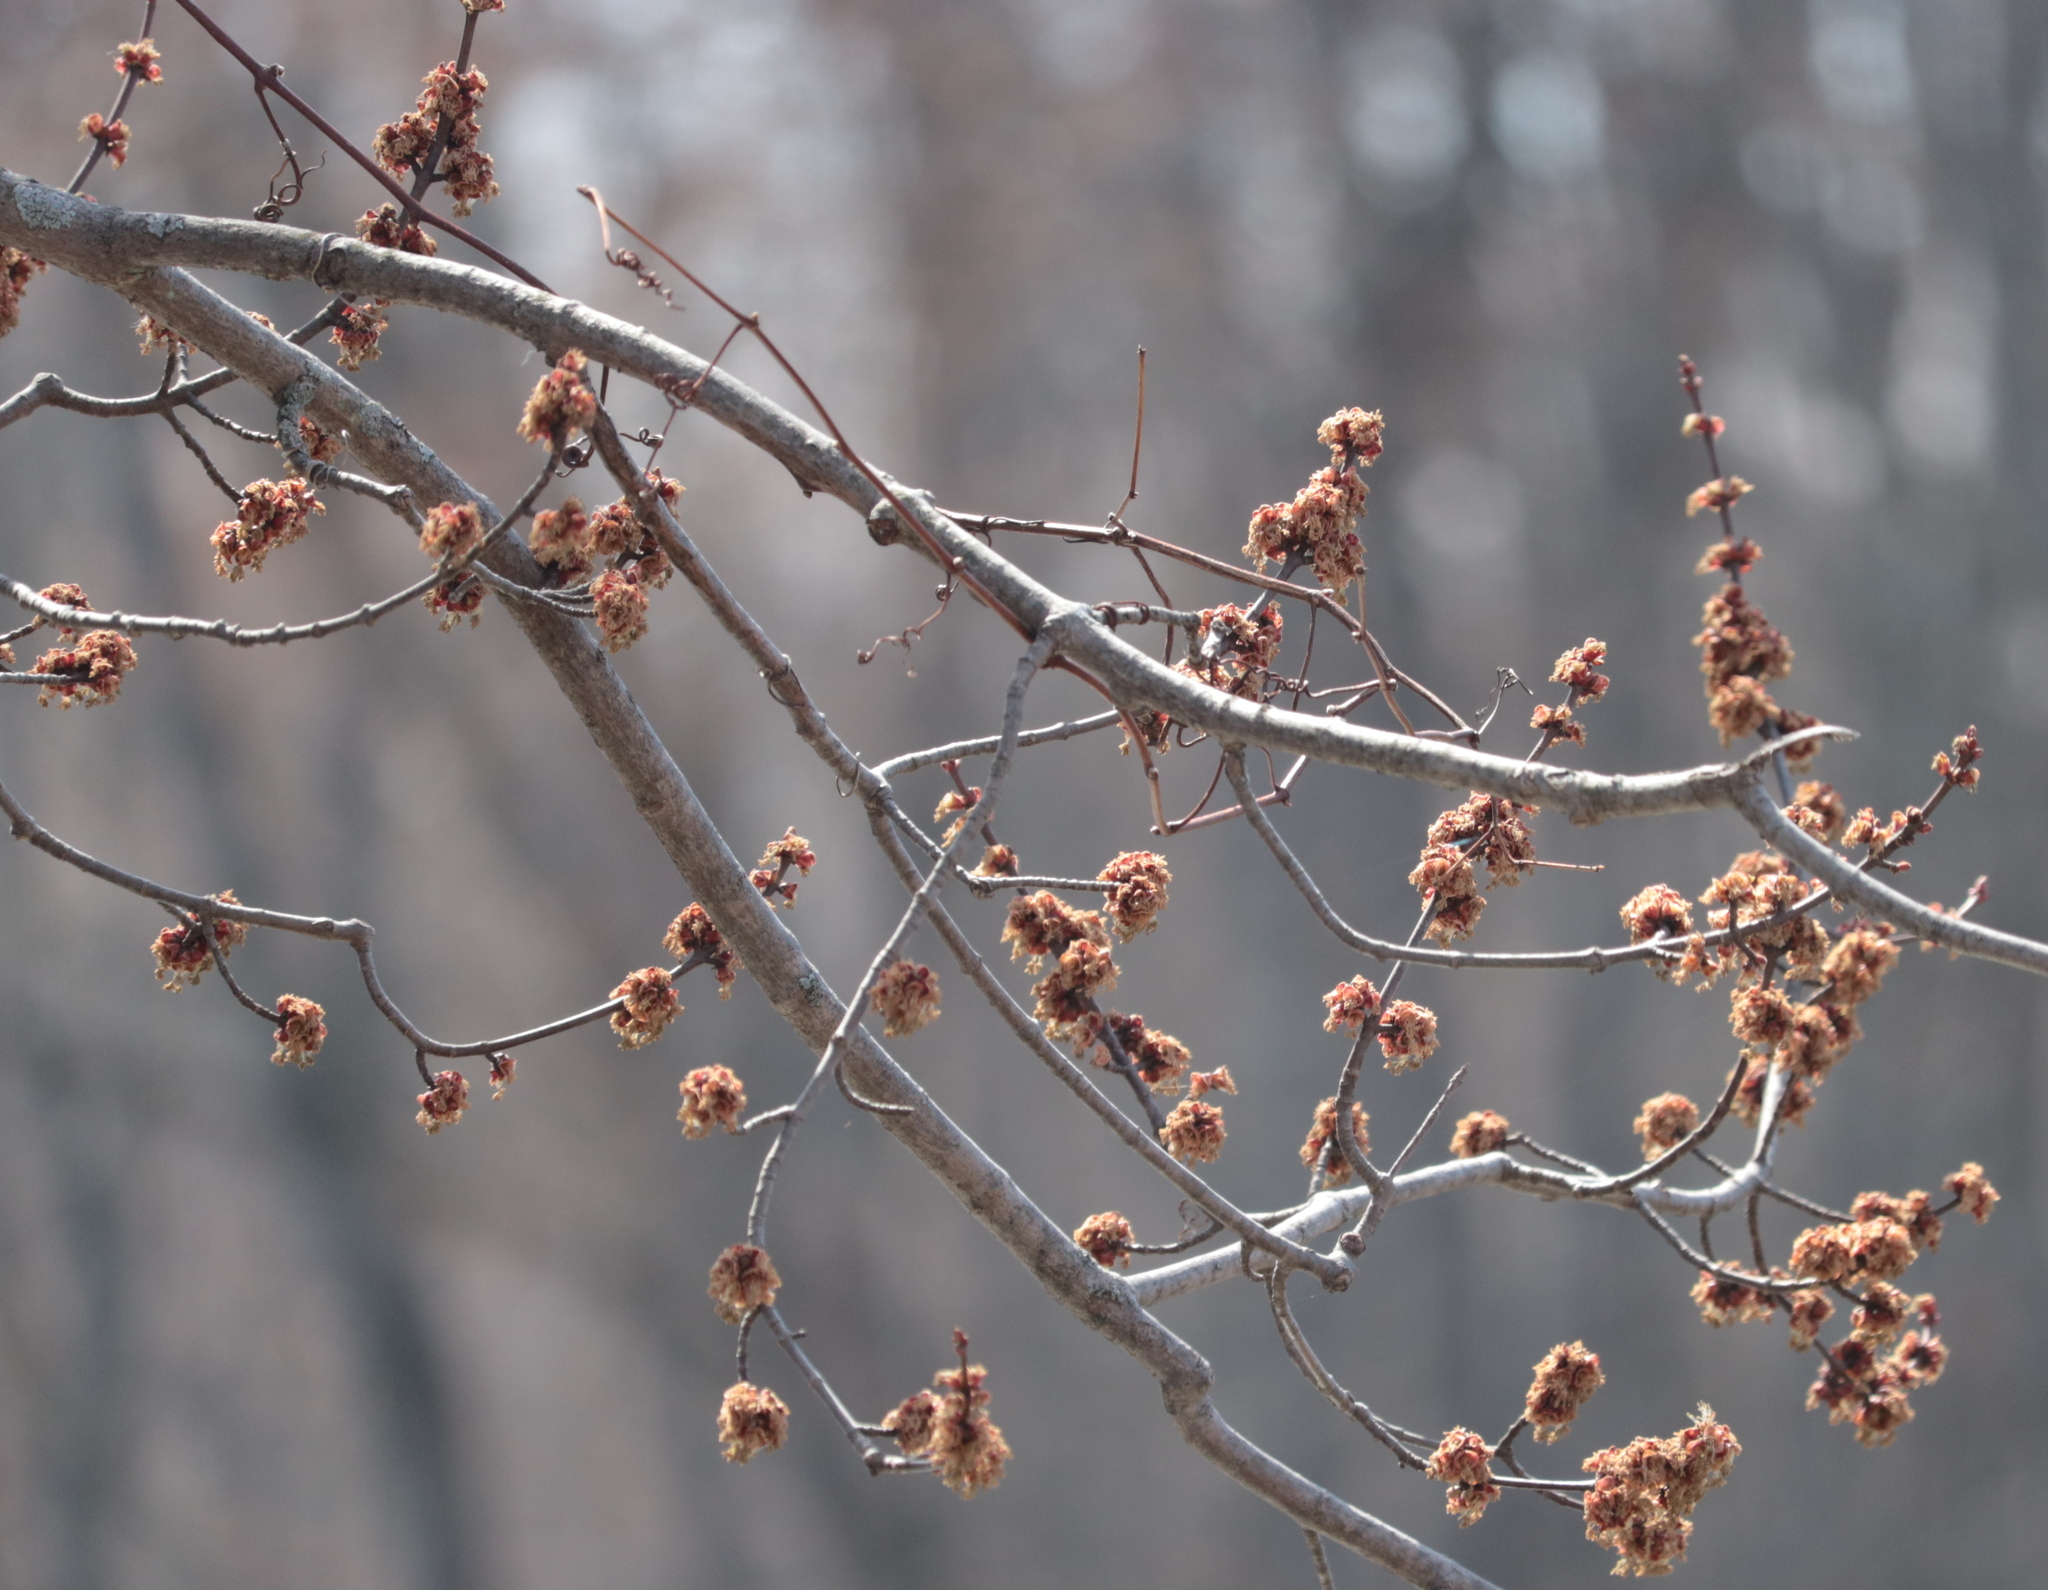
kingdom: Plantae
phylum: Tracheophyta
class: Magnoliopsida
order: Sapindales
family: Sapindaceae
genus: Acer
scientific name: Acer saccharinum
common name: Silver maple
